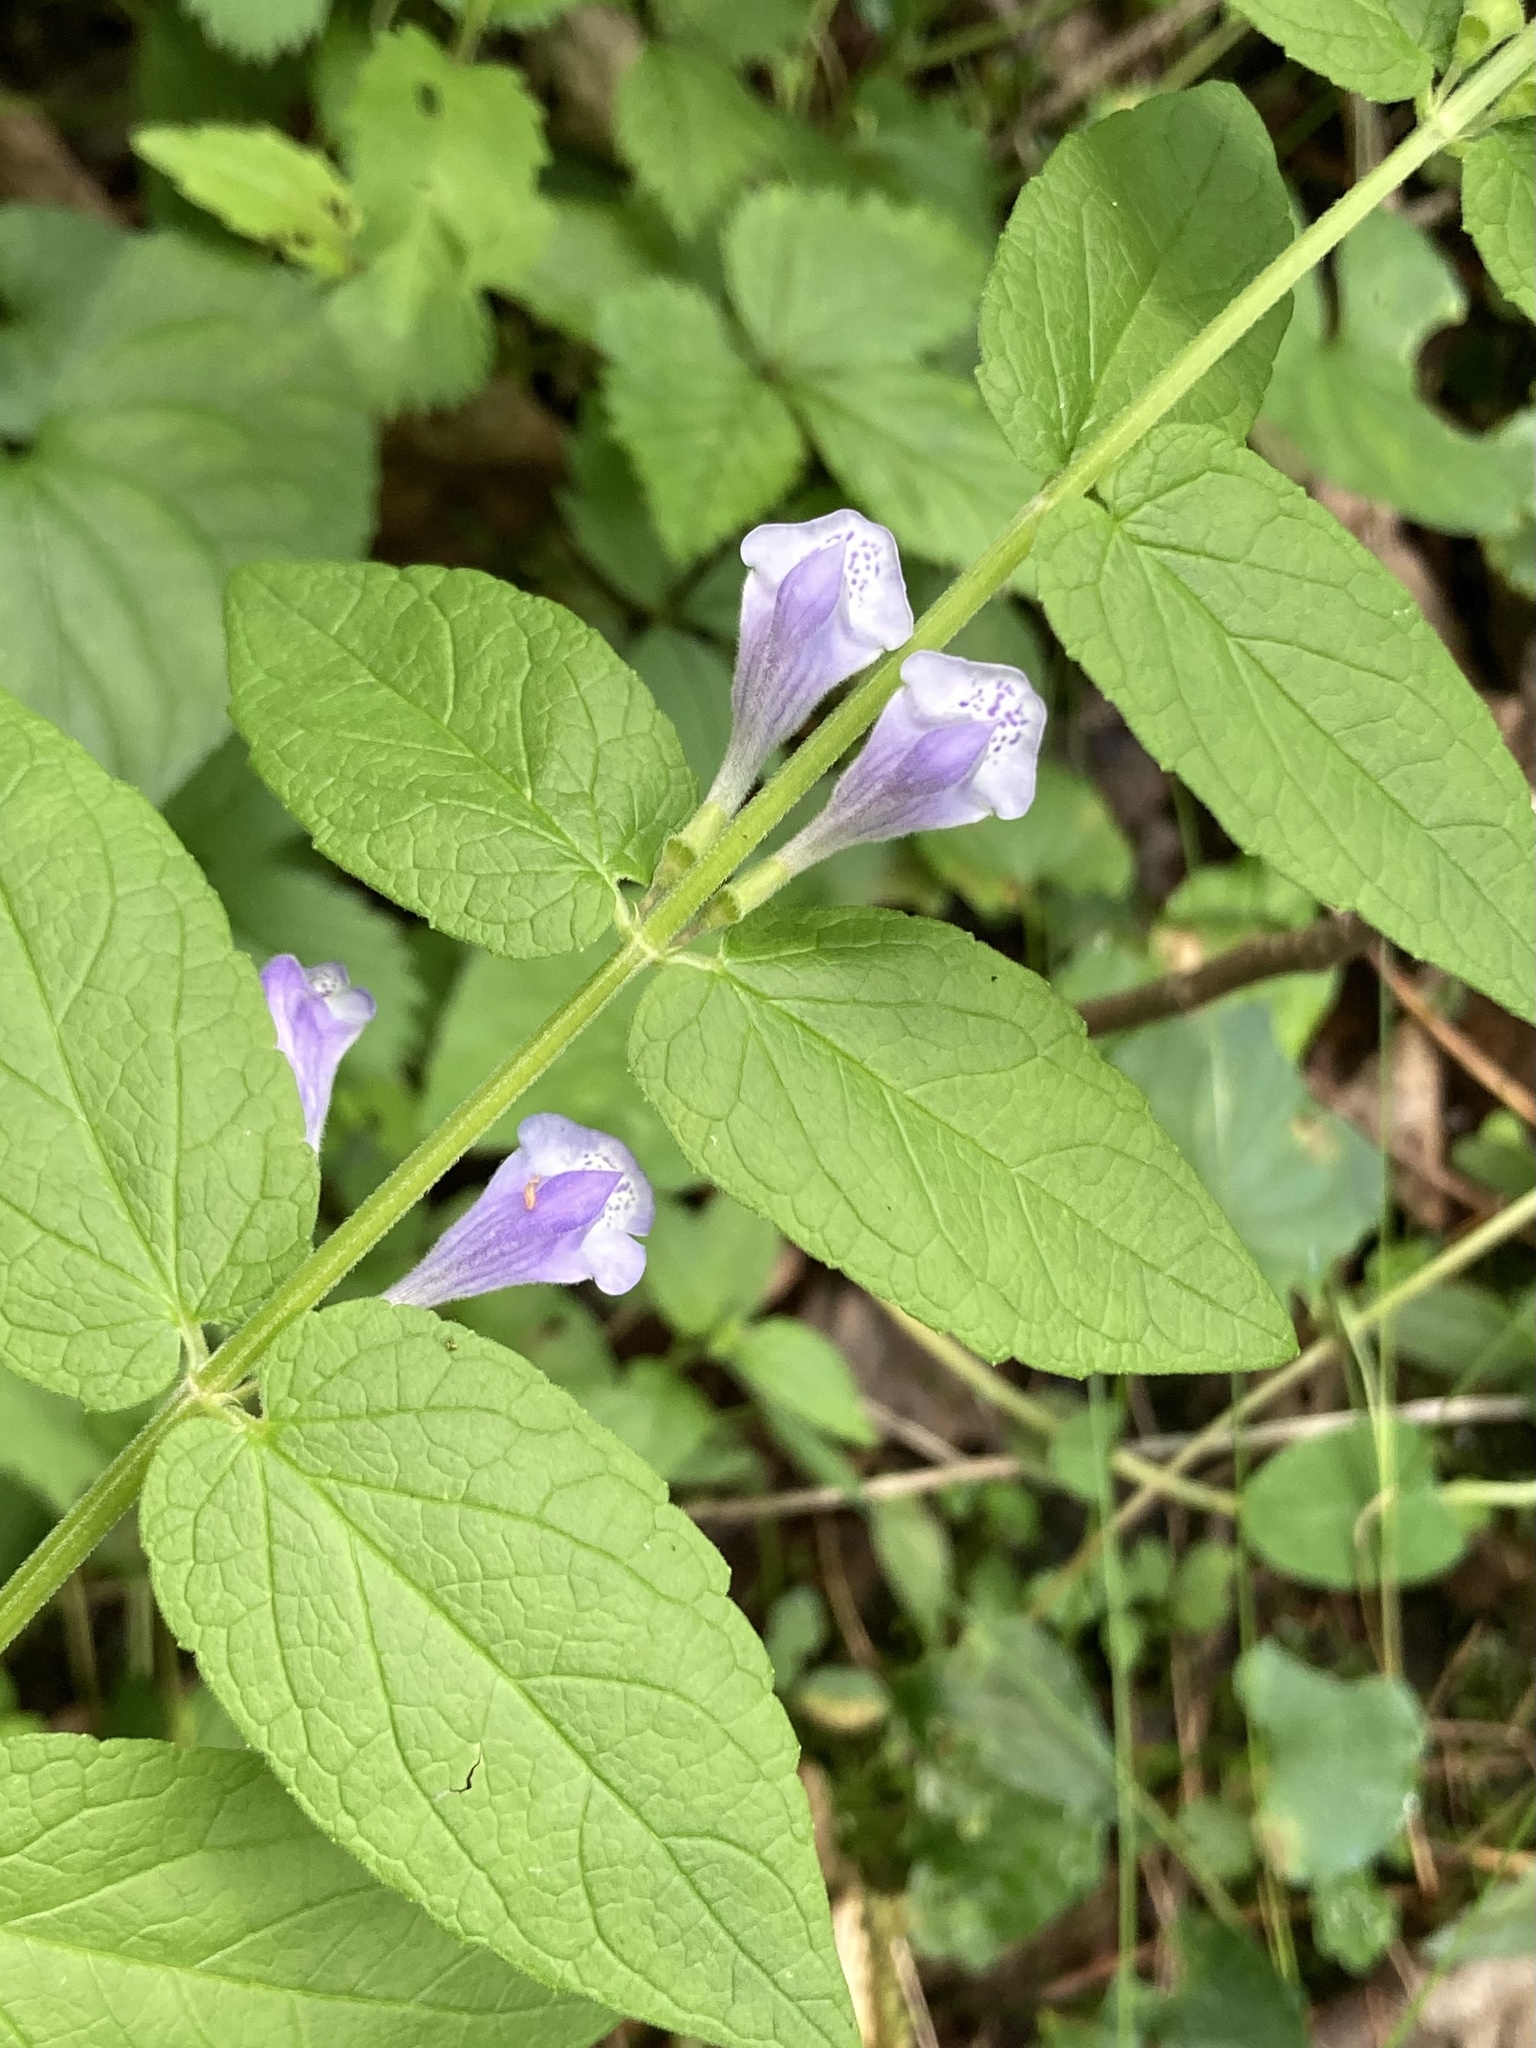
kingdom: Plantae
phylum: Tracheophyta
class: Magnoliopsida
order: Lamiales
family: Lamiaceae
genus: Scutellaria
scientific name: Scutellaria galericulata
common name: Skullcap
